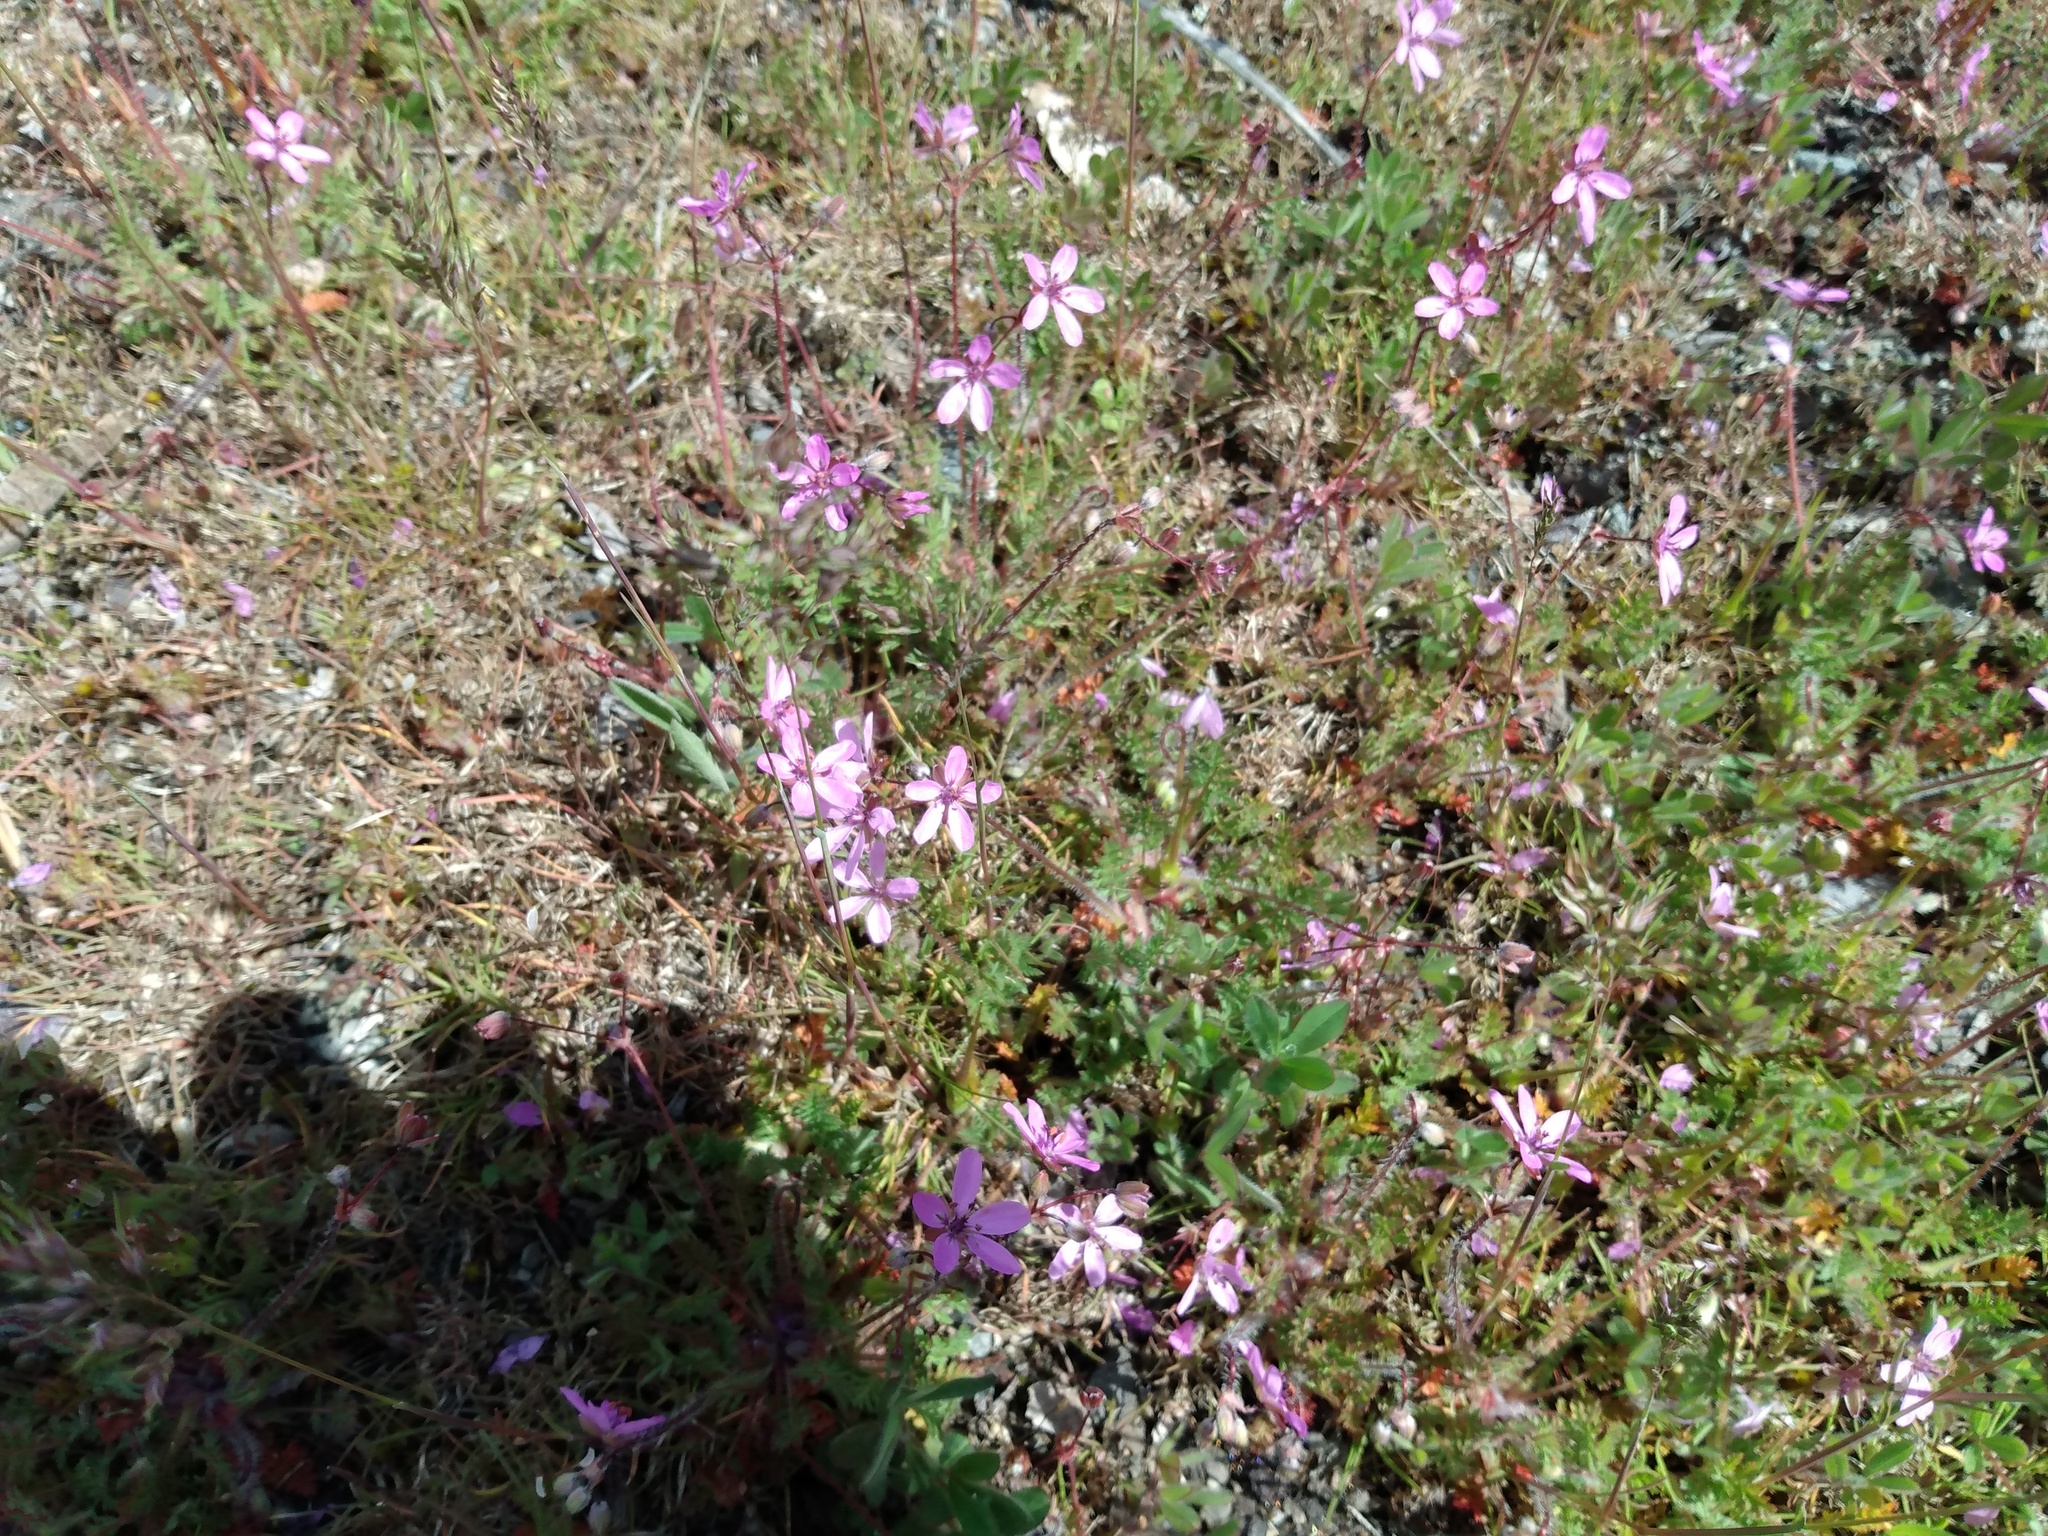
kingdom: Plantae
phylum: Tracheophyta
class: Magnoliopsida
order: Geraniales
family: Geraniaceae
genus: Erodium
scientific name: Erodium cicutarium
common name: Common stork's-bill
